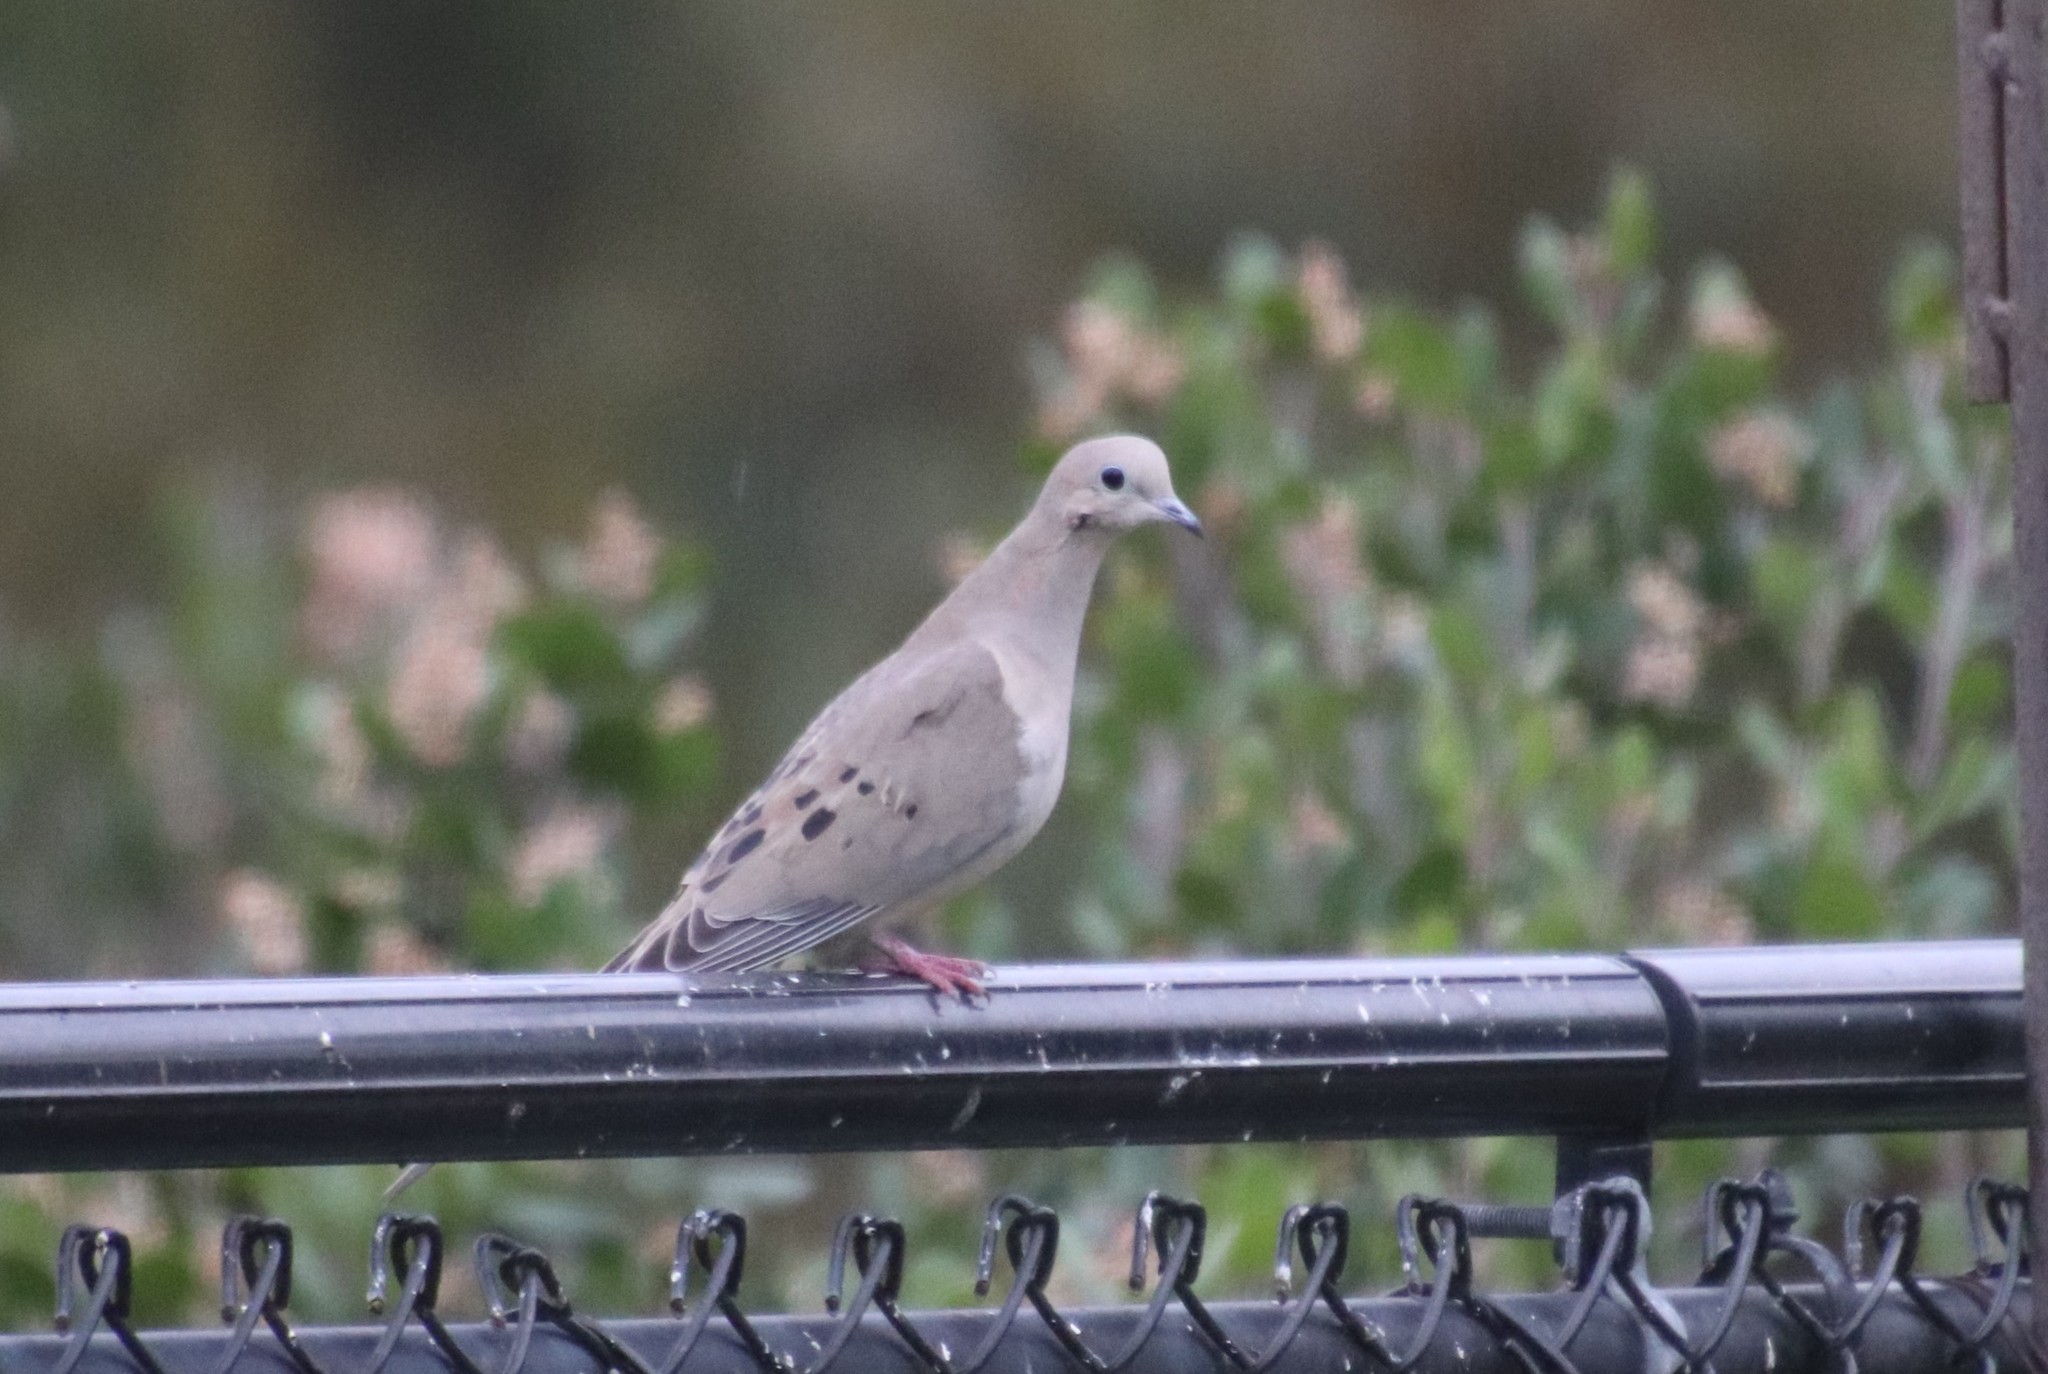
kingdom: Animalia
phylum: Chordata
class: Aves
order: Columbiformes
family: Columbidae
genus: Zenaida
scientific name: Zenaida macroura
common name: Mourning dove
